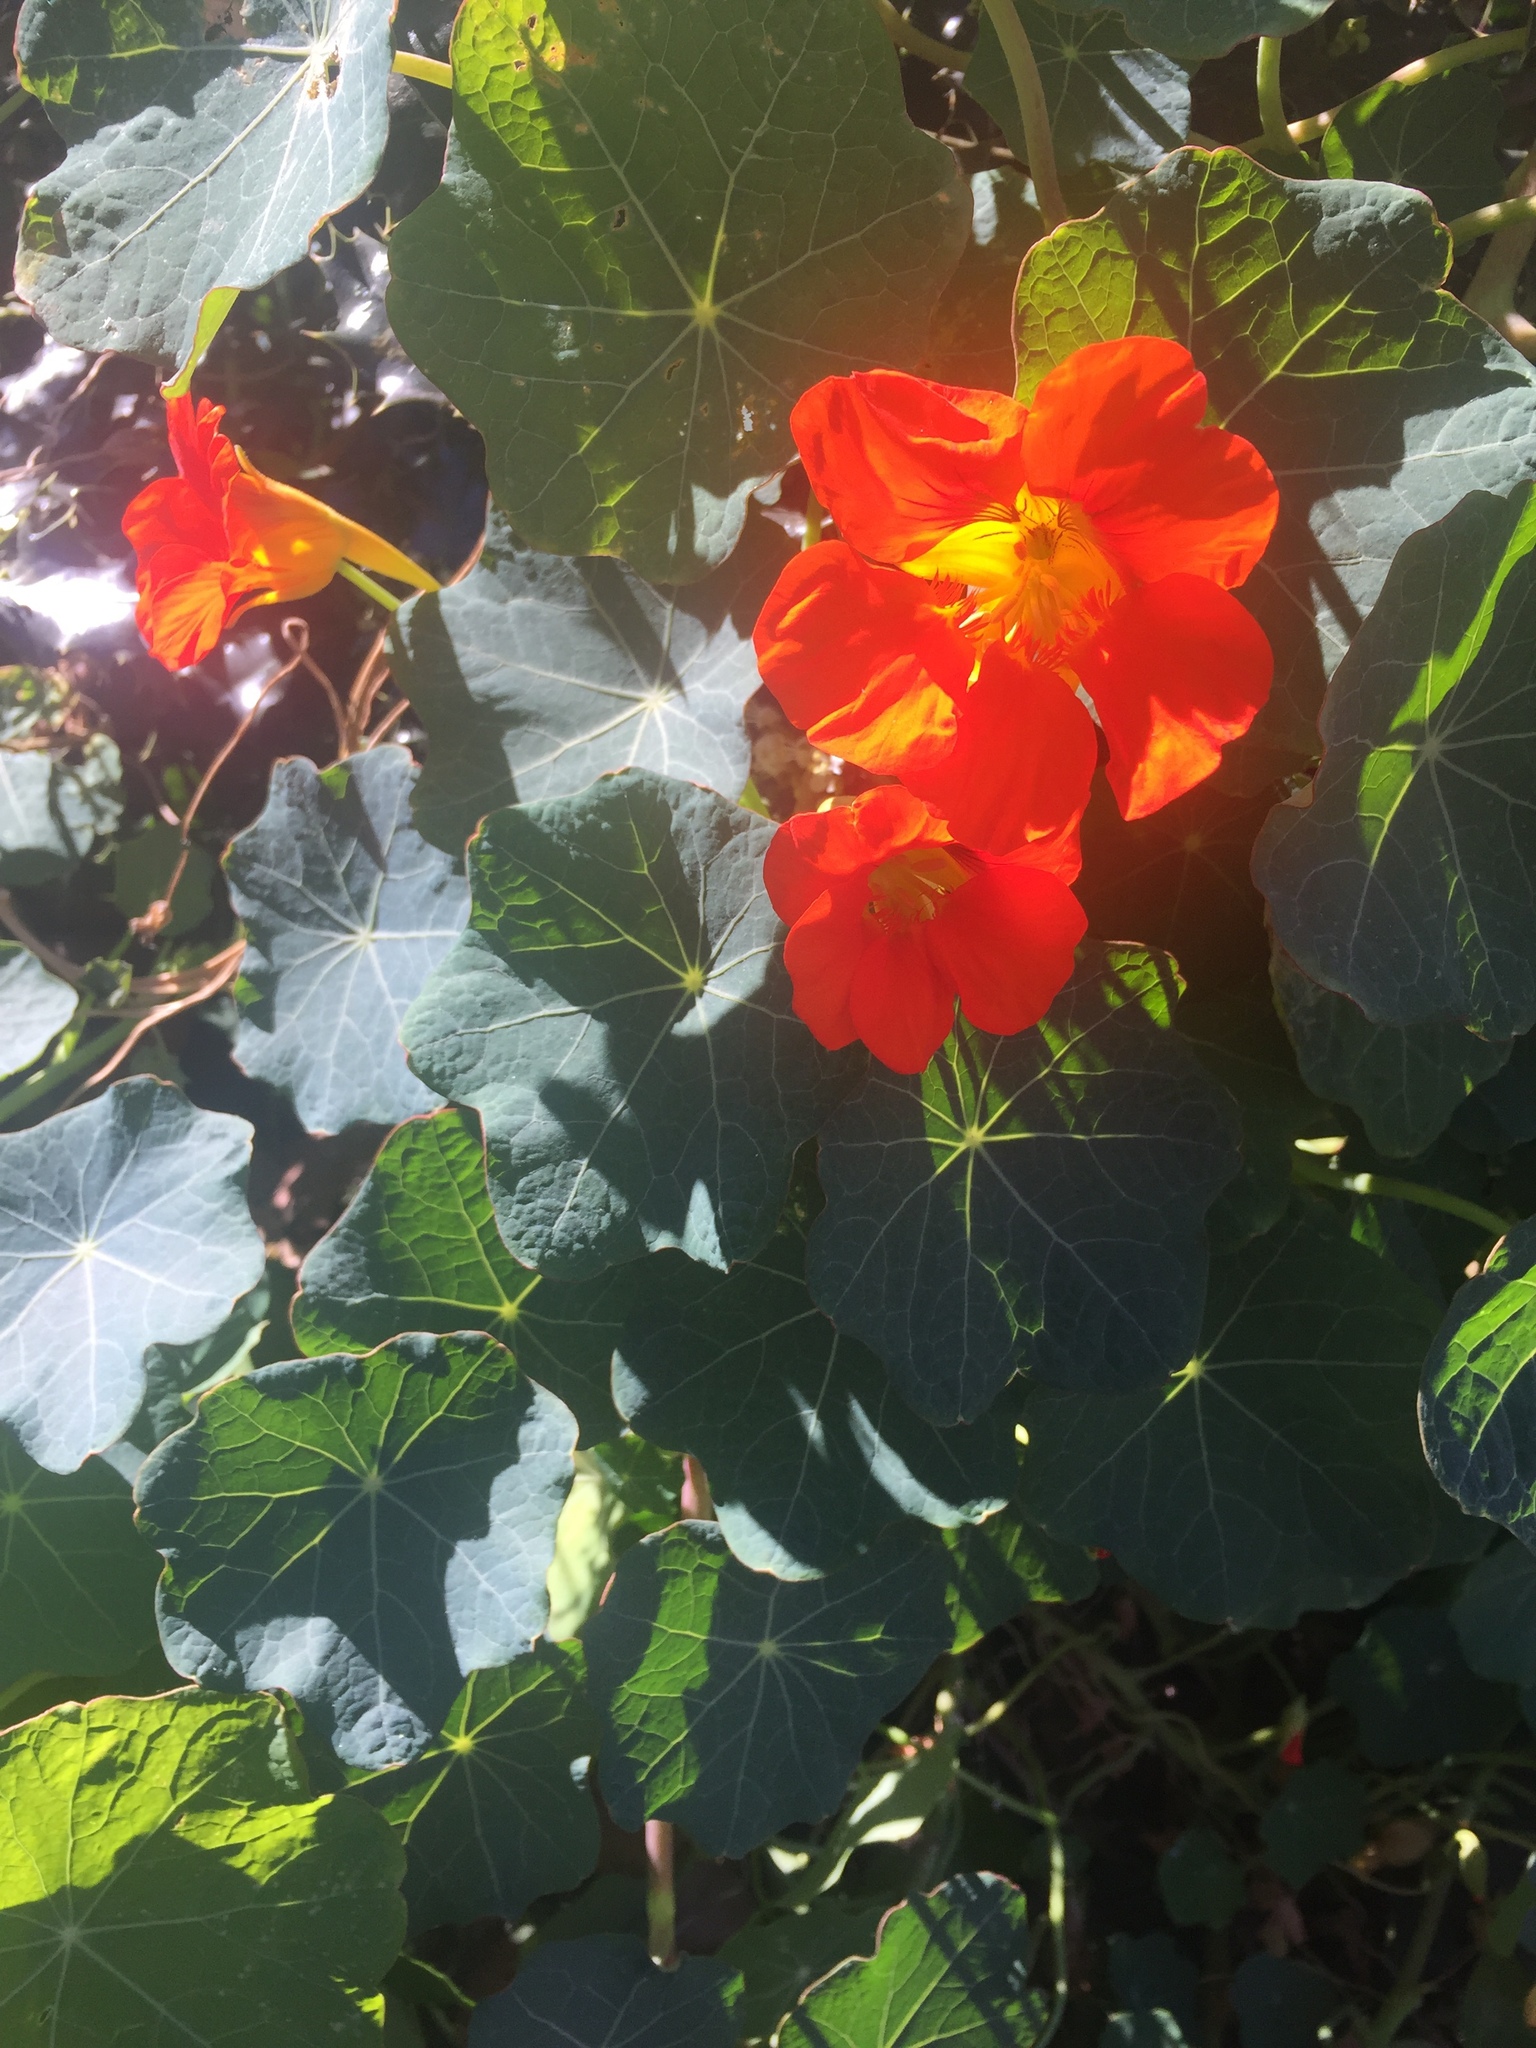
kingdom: Plantae
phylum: Tracheophyta
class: Magnoliopsida
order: Brassicales
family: Tropaeolaceae
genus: Tropaeolum
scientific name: Tropaeolum majus
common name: Nasturtium
